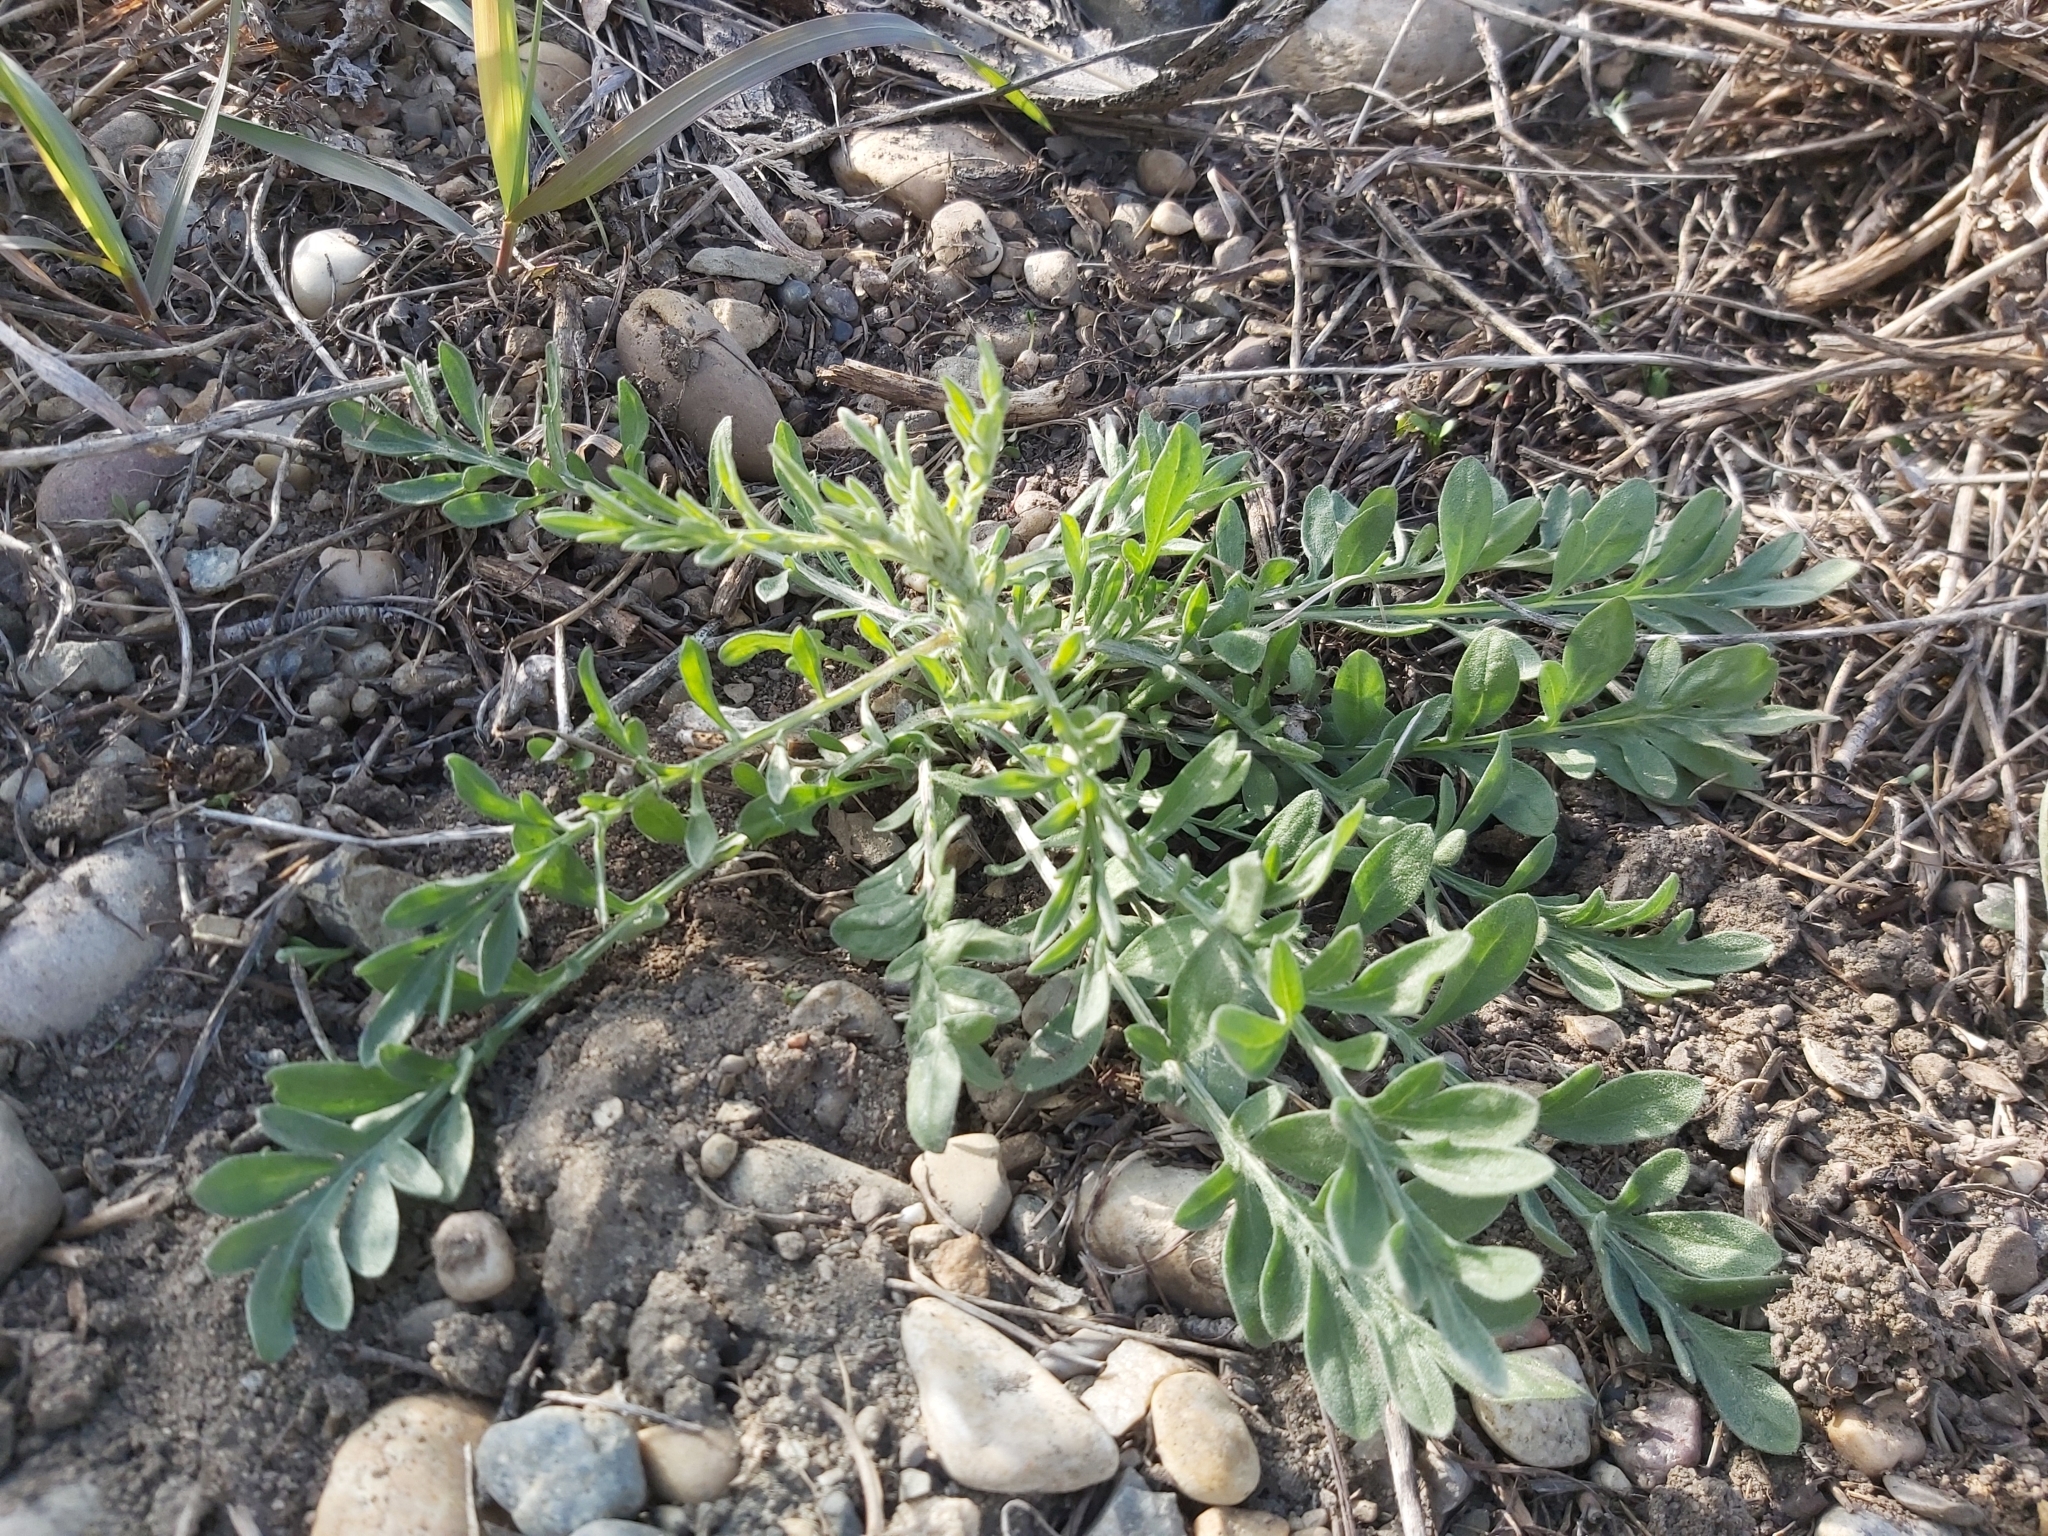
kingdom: Plantae
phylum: Tracheophyta
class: Magnoliopsida
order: Asterales
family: Asteraceae
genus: Centaurea
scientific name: Centaurea stoebe
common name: Spotted knapweed
